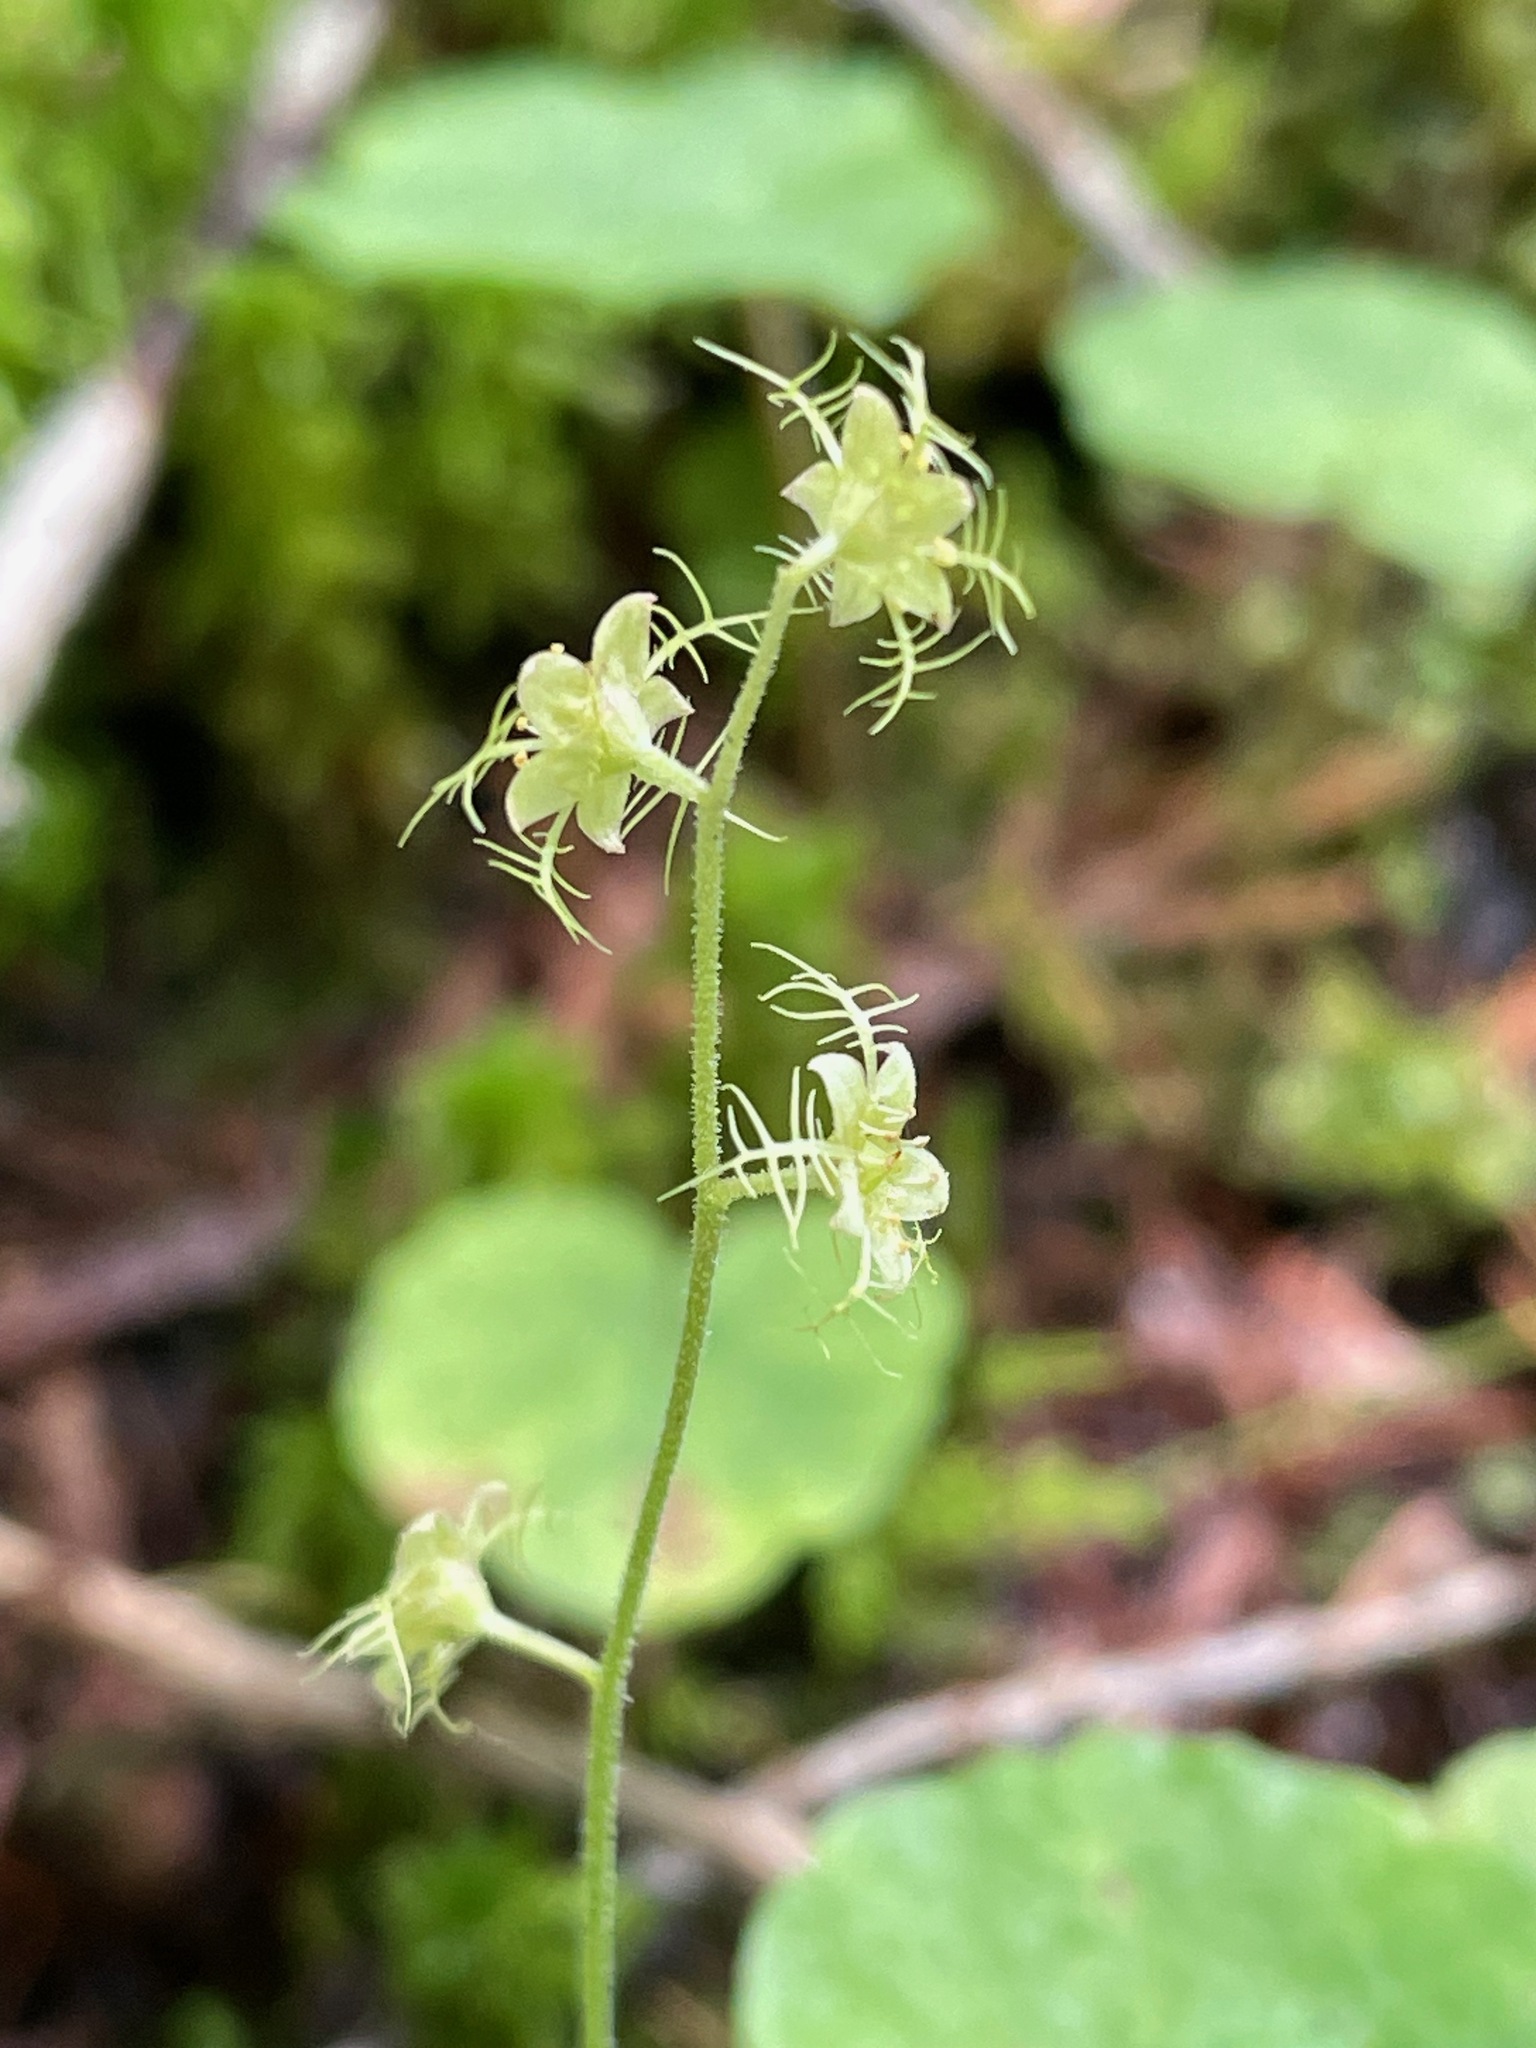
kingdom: Plantae
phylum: Tracheophyta
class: Magnoliopsida
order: Saxifragales
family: Saxifragaceae
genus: Mitella
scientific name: Mitella nuda
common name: Bare-stemmed bishop's-cap
